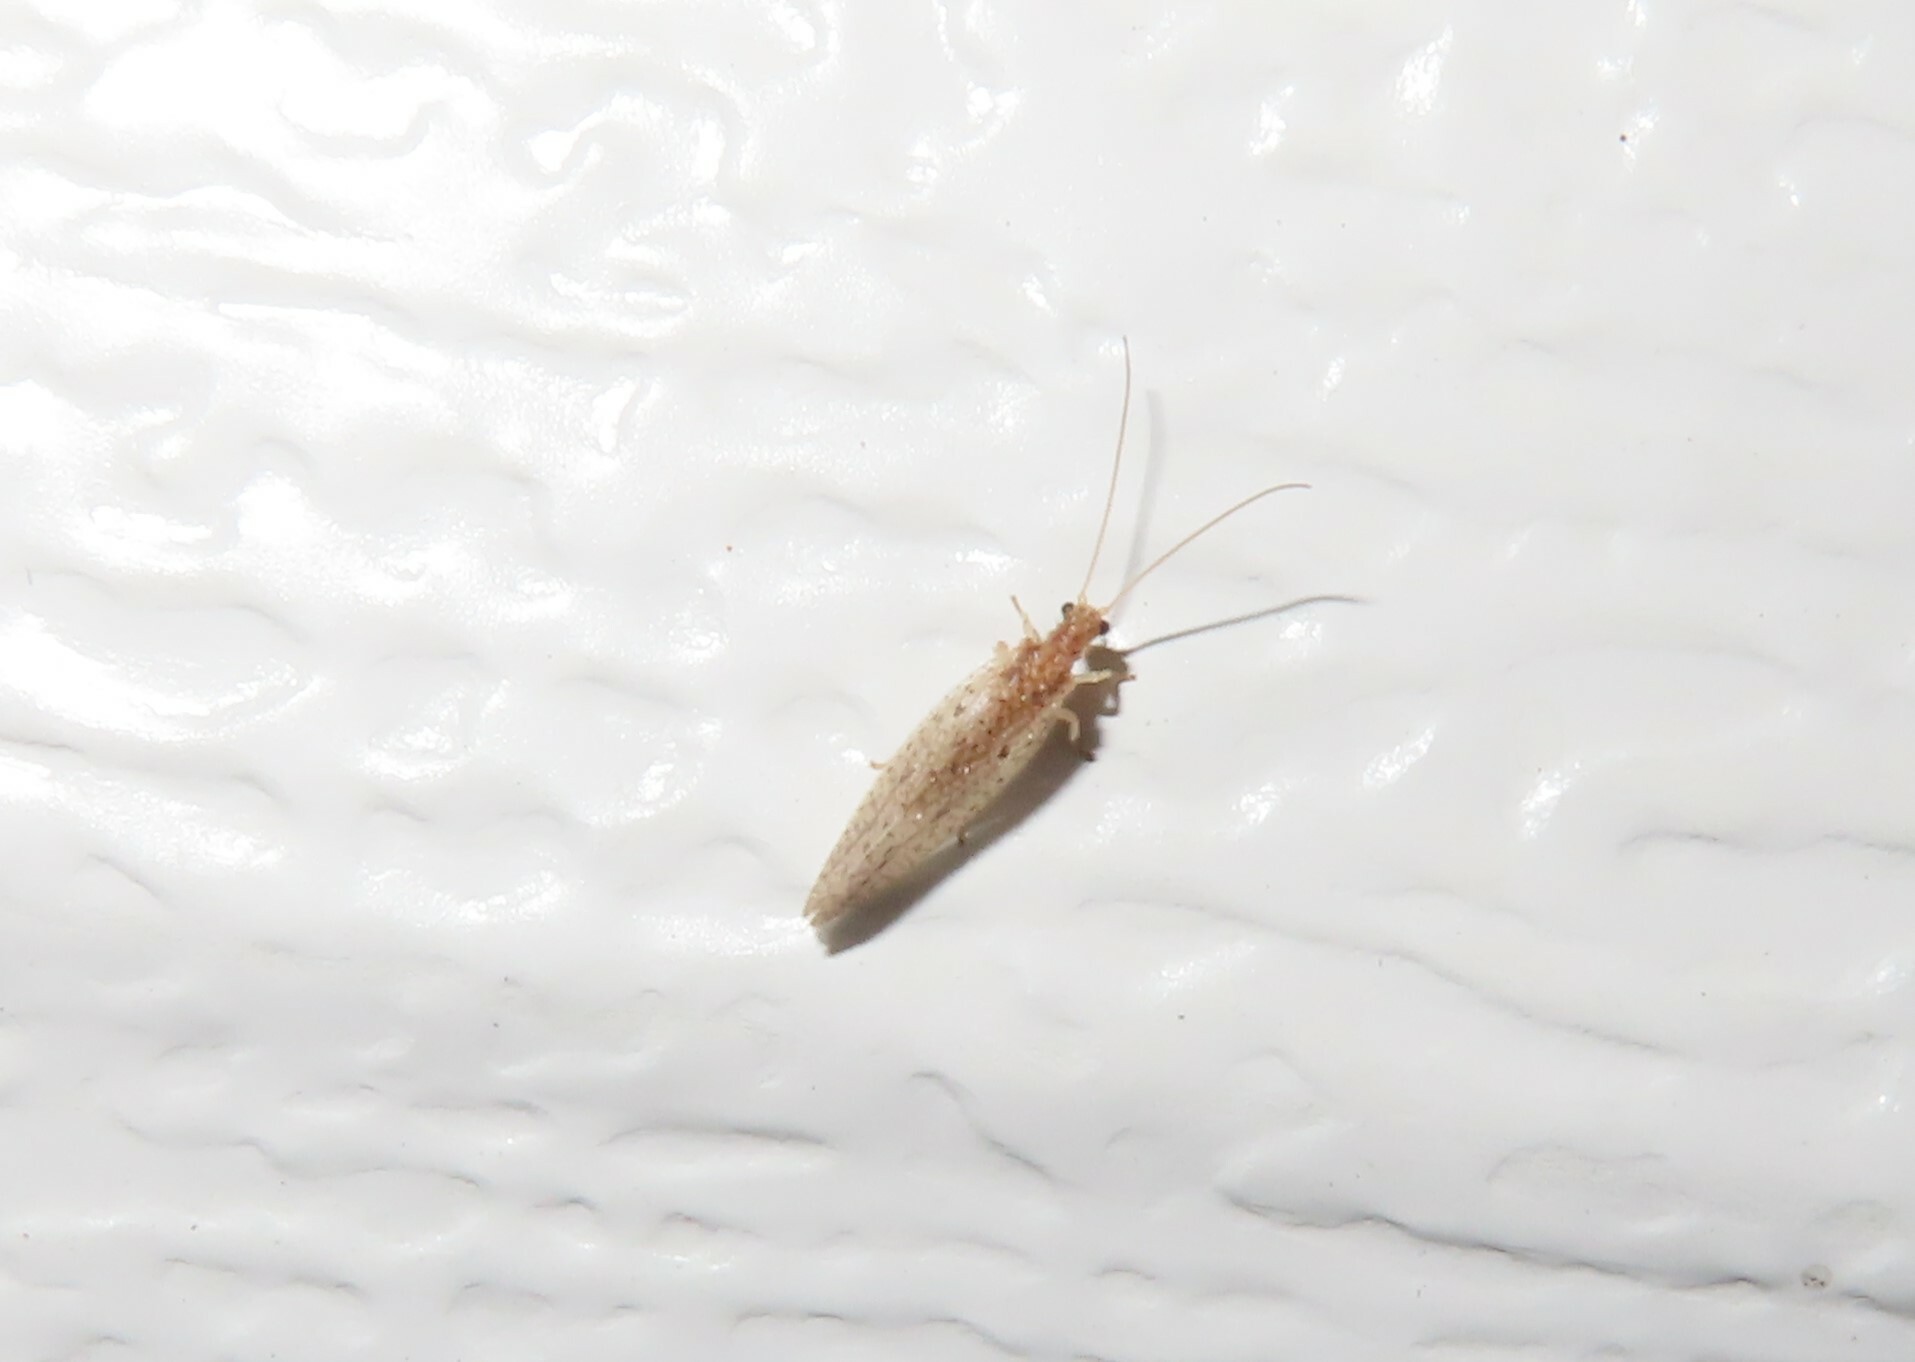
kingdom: Animalia
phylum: Arthropoda
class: Insecta
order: Neuroptera
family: Hemerobiidae
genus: Micromus
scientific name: Micromus subanticus
